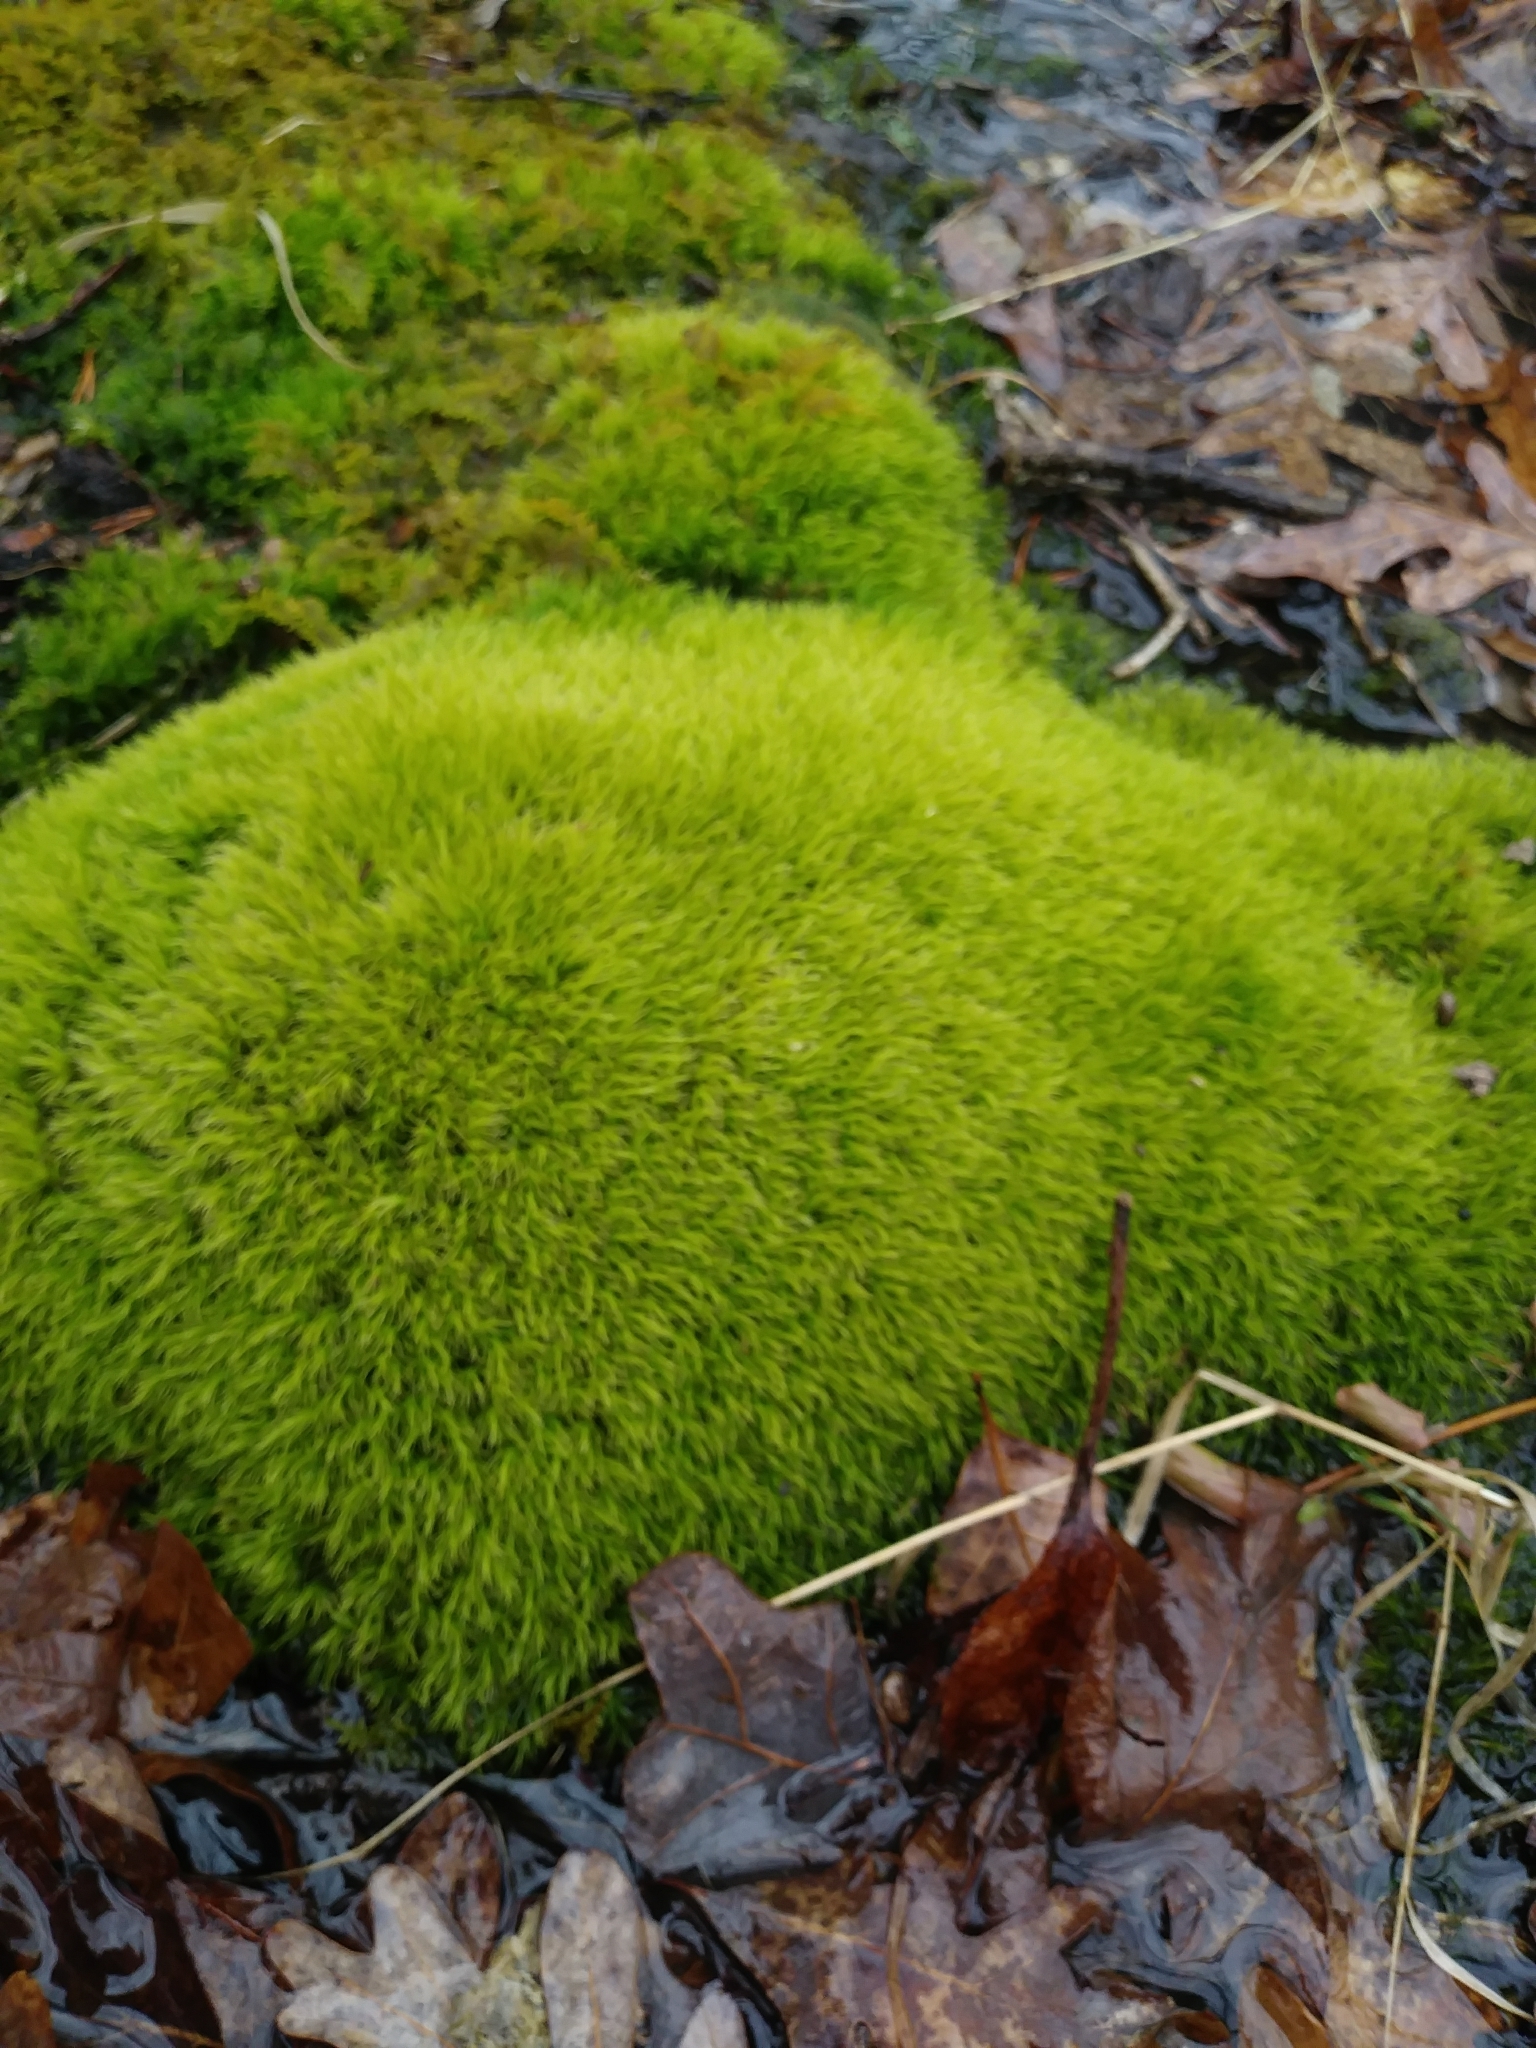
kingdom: Plantae
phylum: Bryophyta
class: Bryopsida
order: Dicranales
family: Dicranaceae
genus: Dicranum
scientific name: Dicranum scoparium
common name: Broom fork-moss
